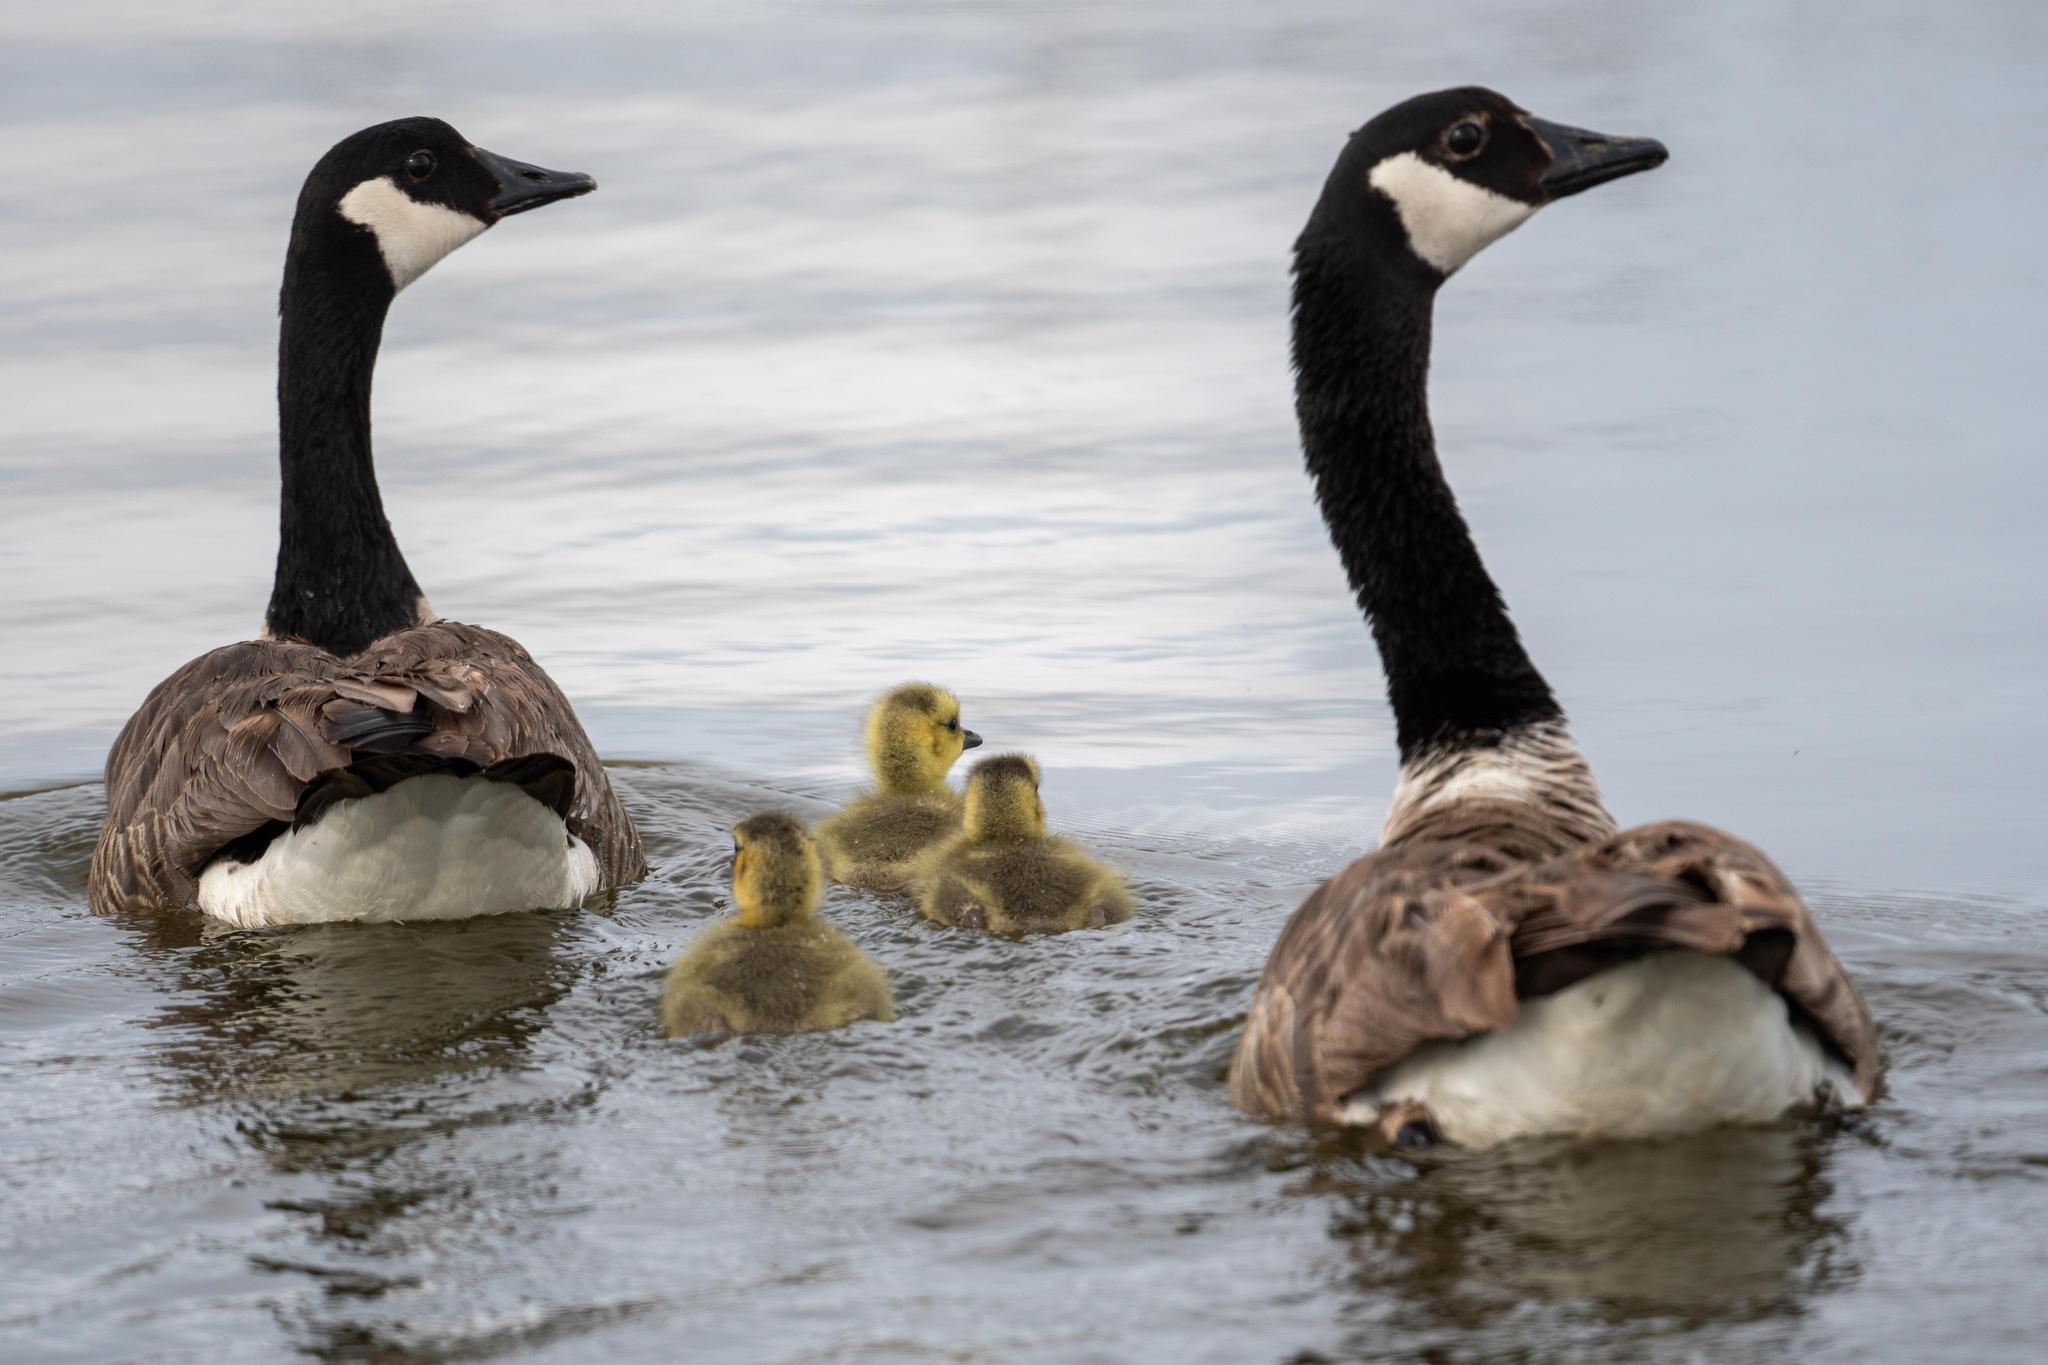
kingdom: Animalia
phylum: Chordata
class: Aves
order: Anseriformes
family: Anatidae
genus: Branta
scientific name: Branta canadensis
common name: Canada goose
